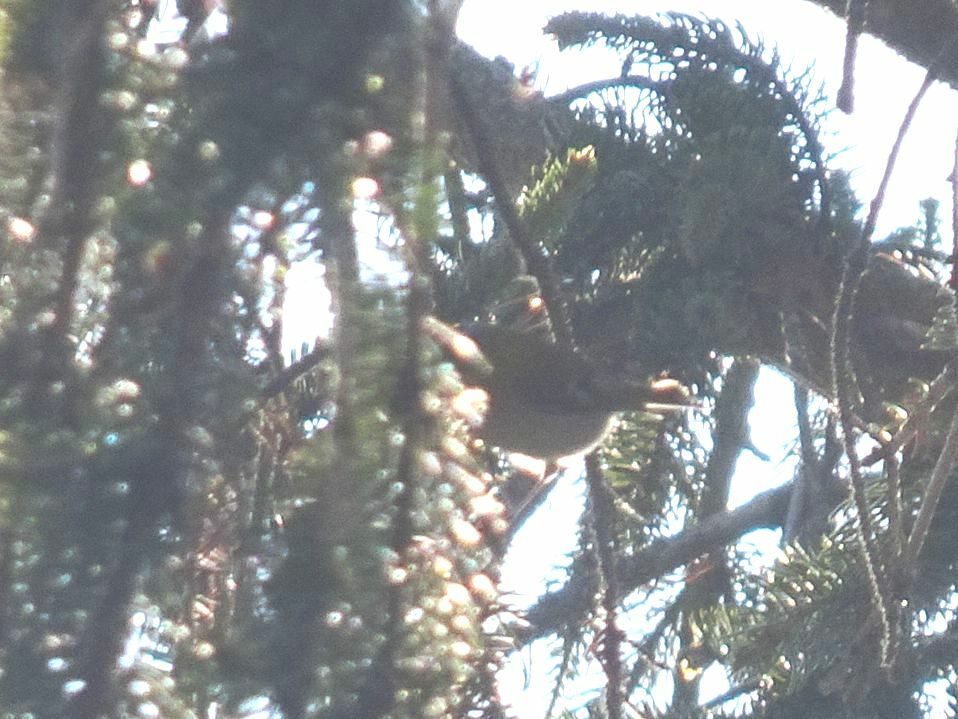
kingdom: Animalia
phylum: Chordata
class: Aves
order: Passeriformes
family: Regulidae
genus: Regulus
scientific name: Regulus ignicapilla
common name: Firecrest
